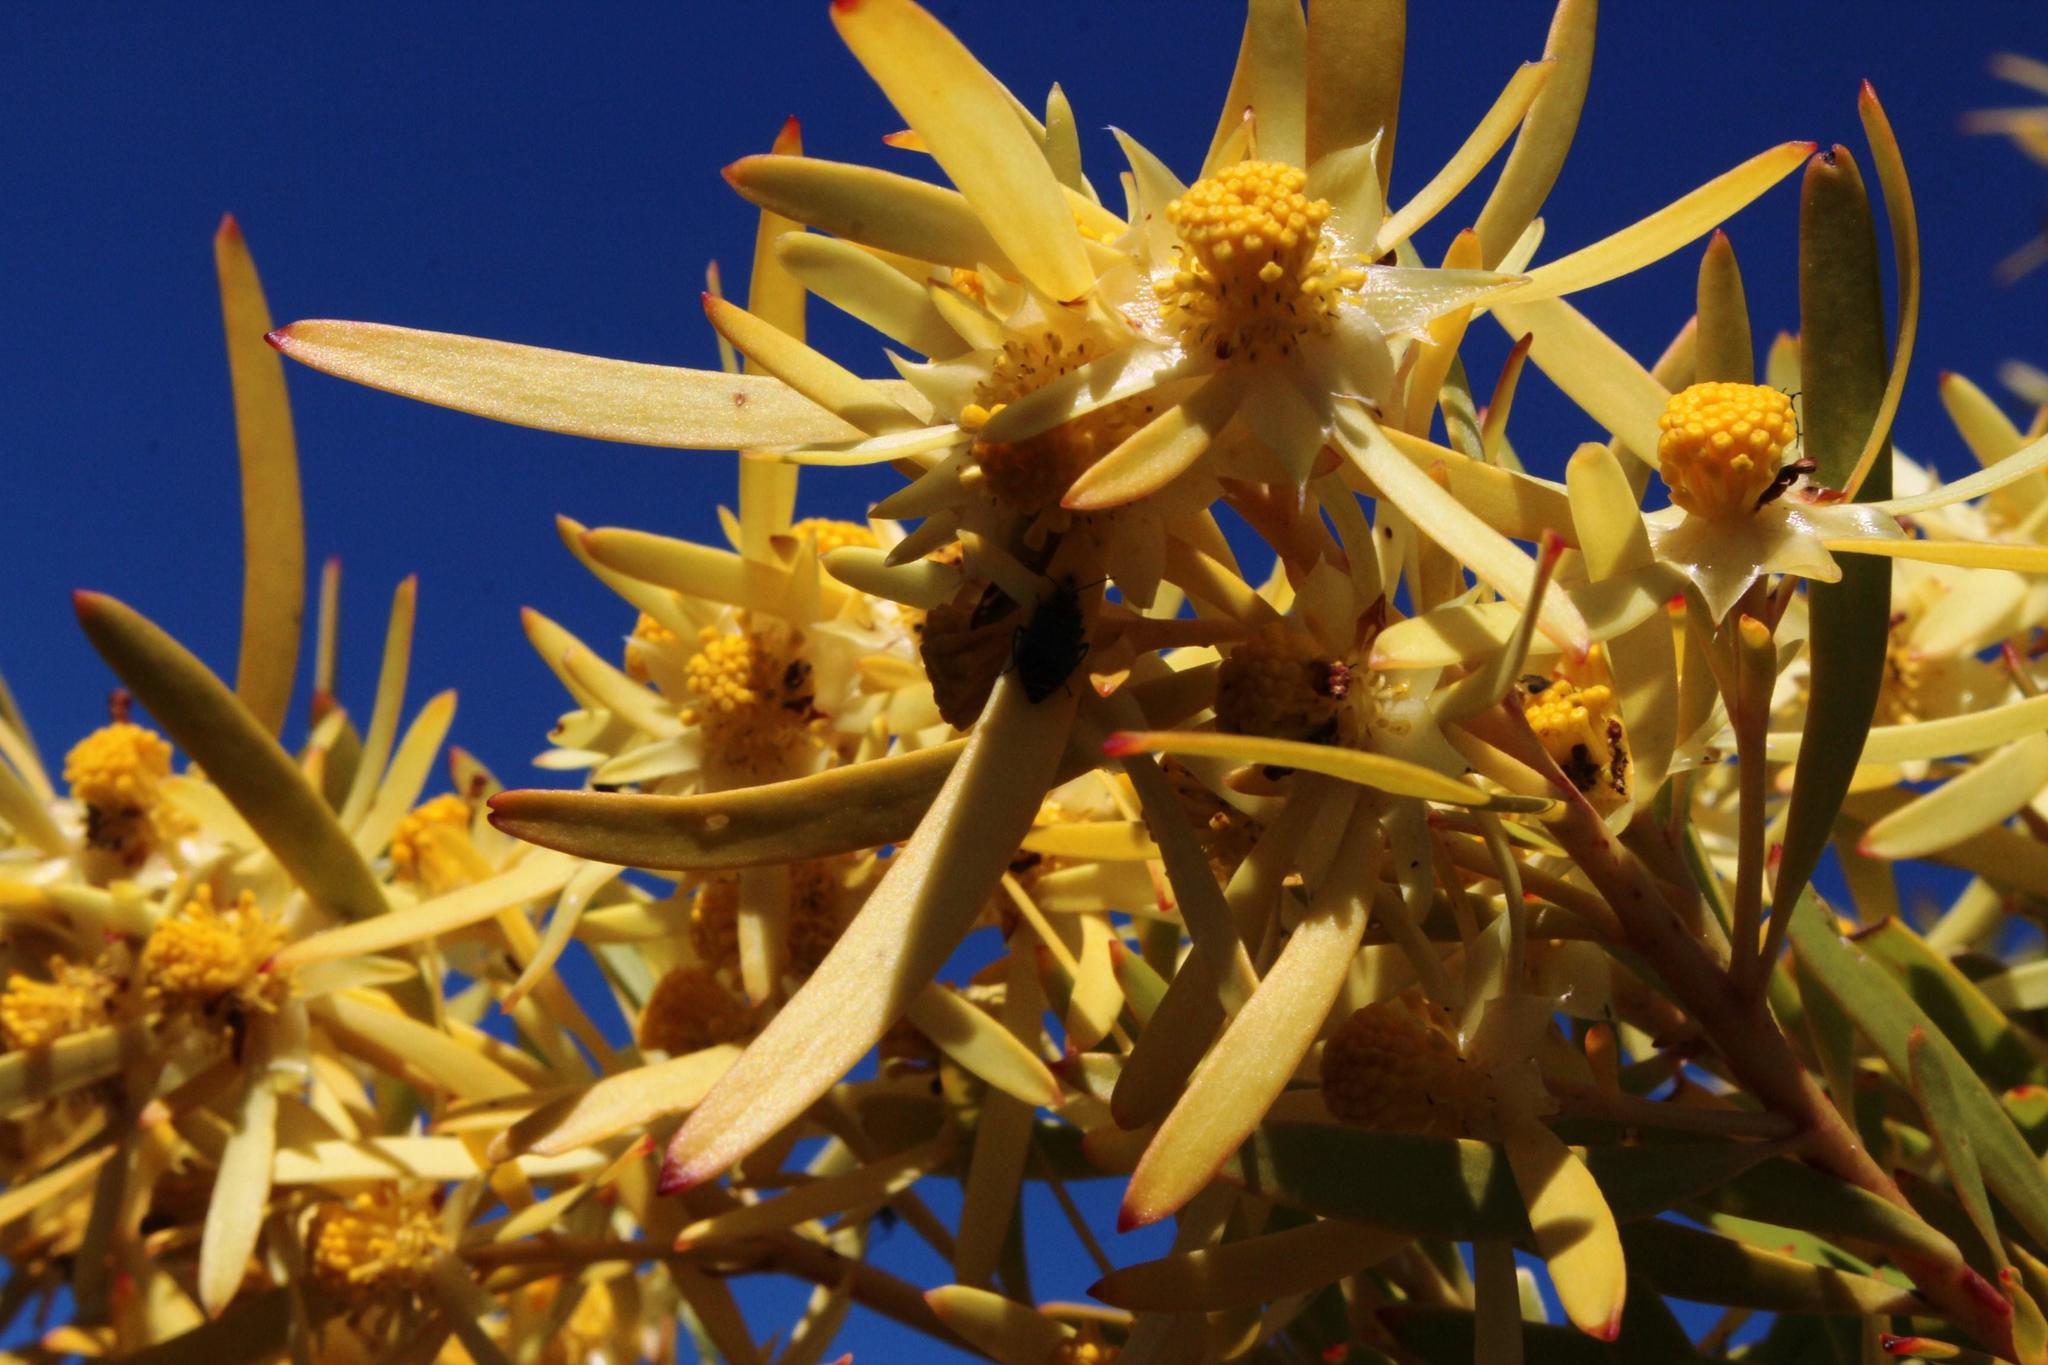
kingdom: Plantae
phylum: Tracheophyta
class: Magnoliopsida
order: Proteales
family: Proteaceae
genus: Leucadendron
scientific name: Leucadendron eucalyptifolium
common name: Gum-leaved conebush
